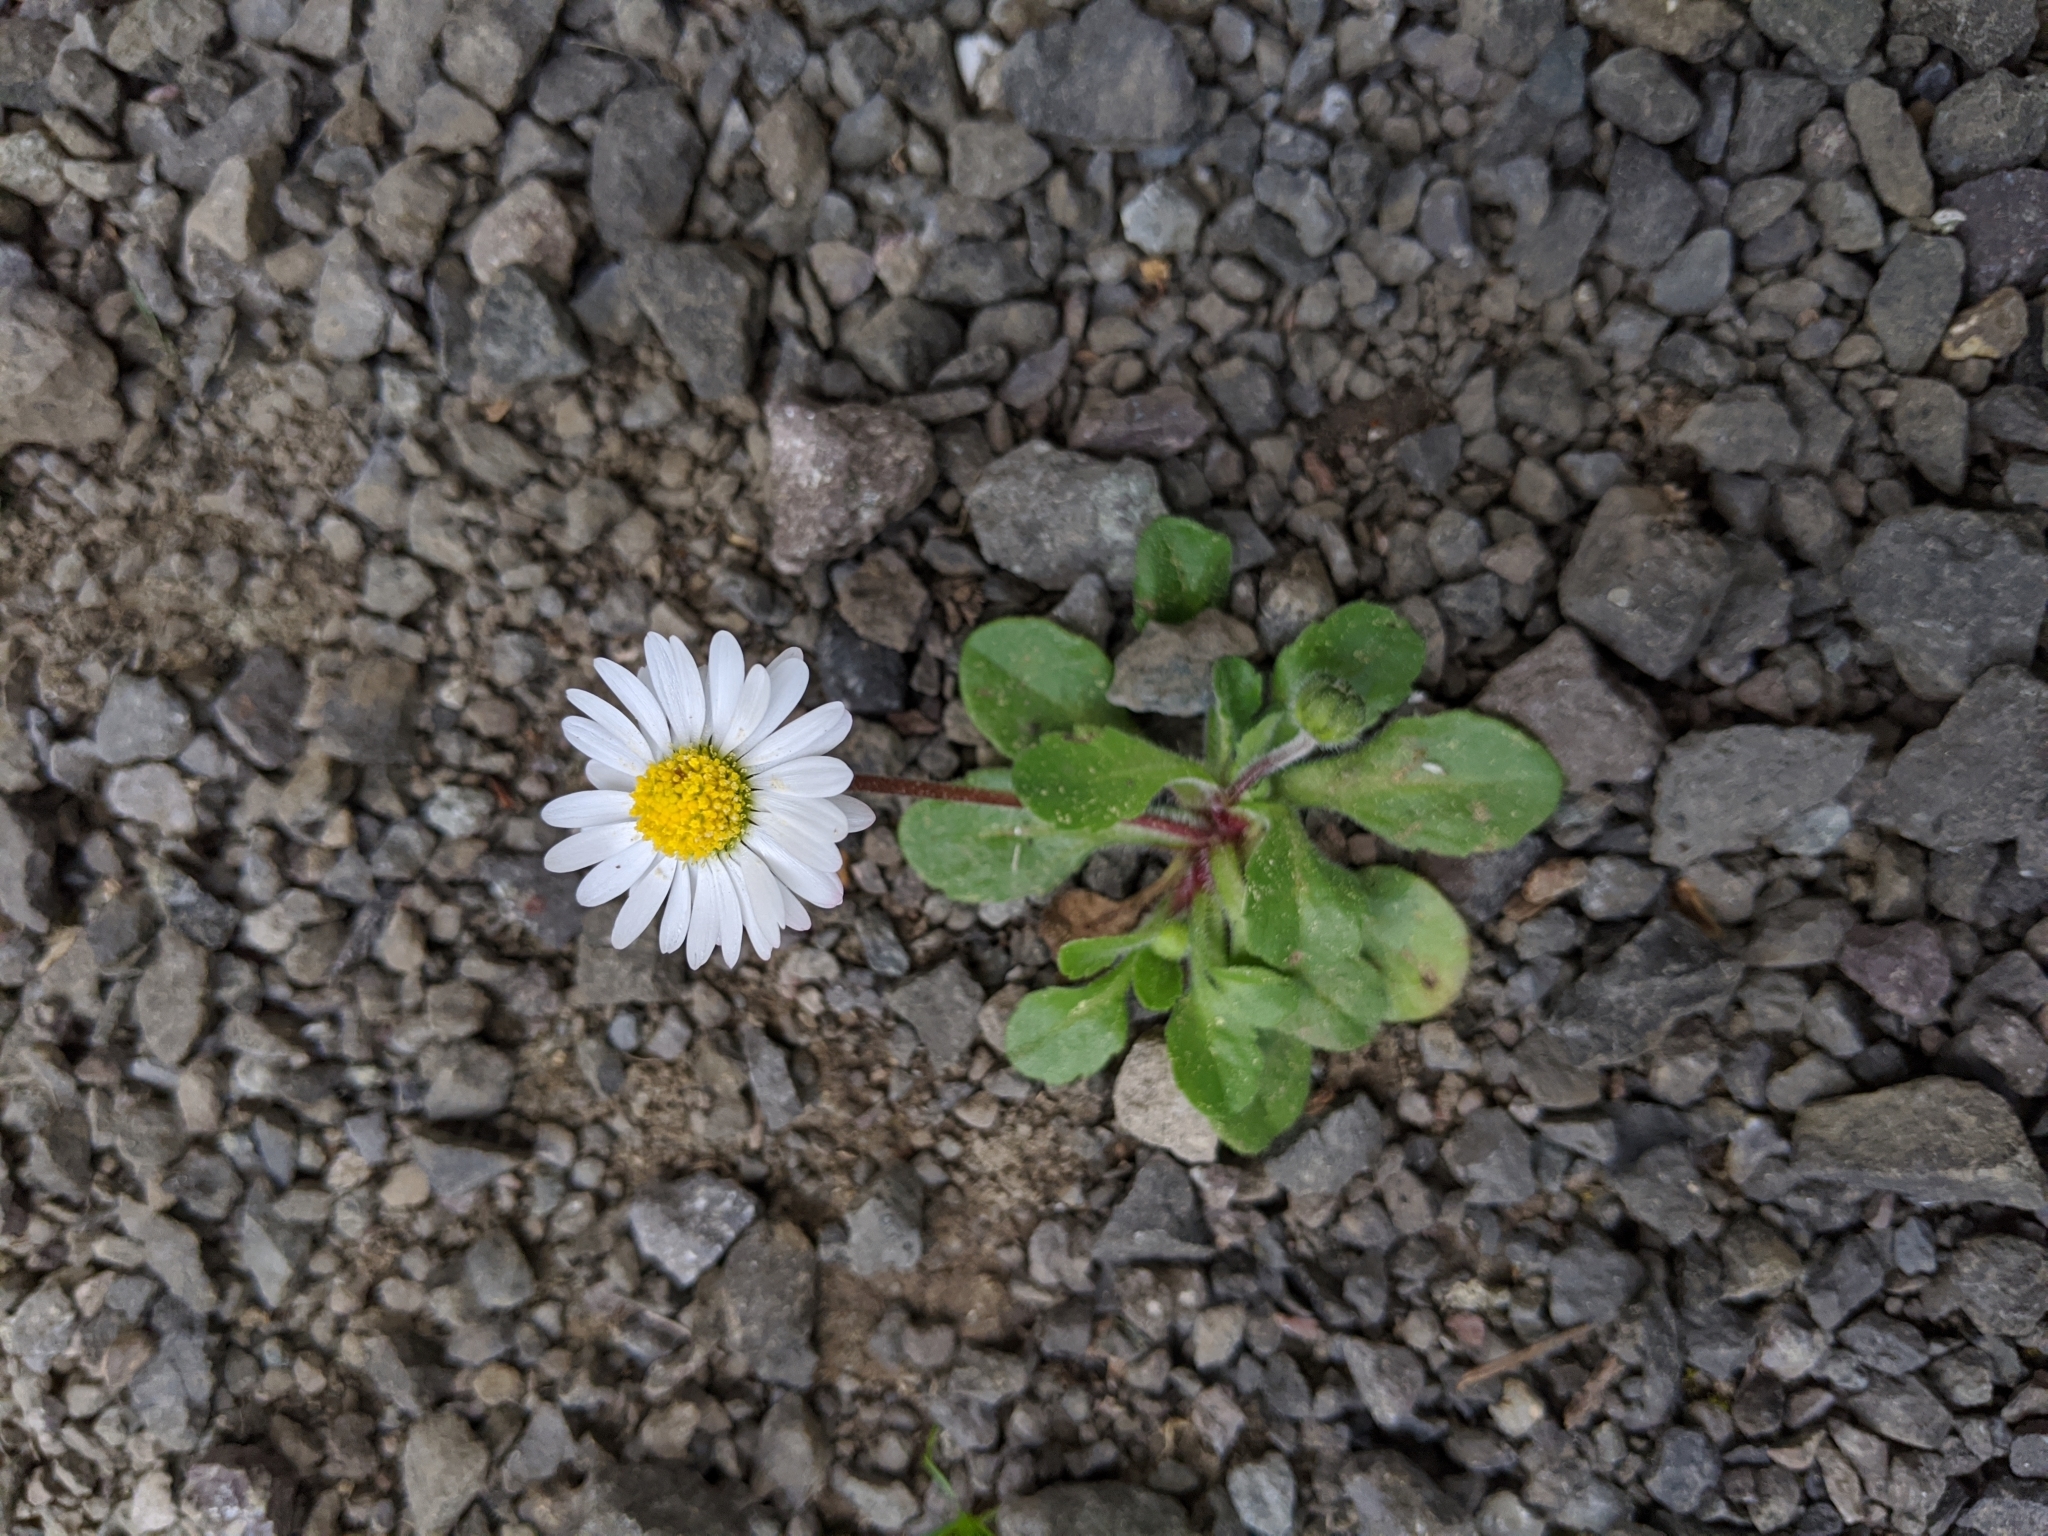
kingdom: Plantae
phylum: Tracheophyta
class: Magnoliopsida
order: Asterales
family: Asteraceae
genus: Bellis
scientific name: Bellis perennis
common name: Lawndaisy
